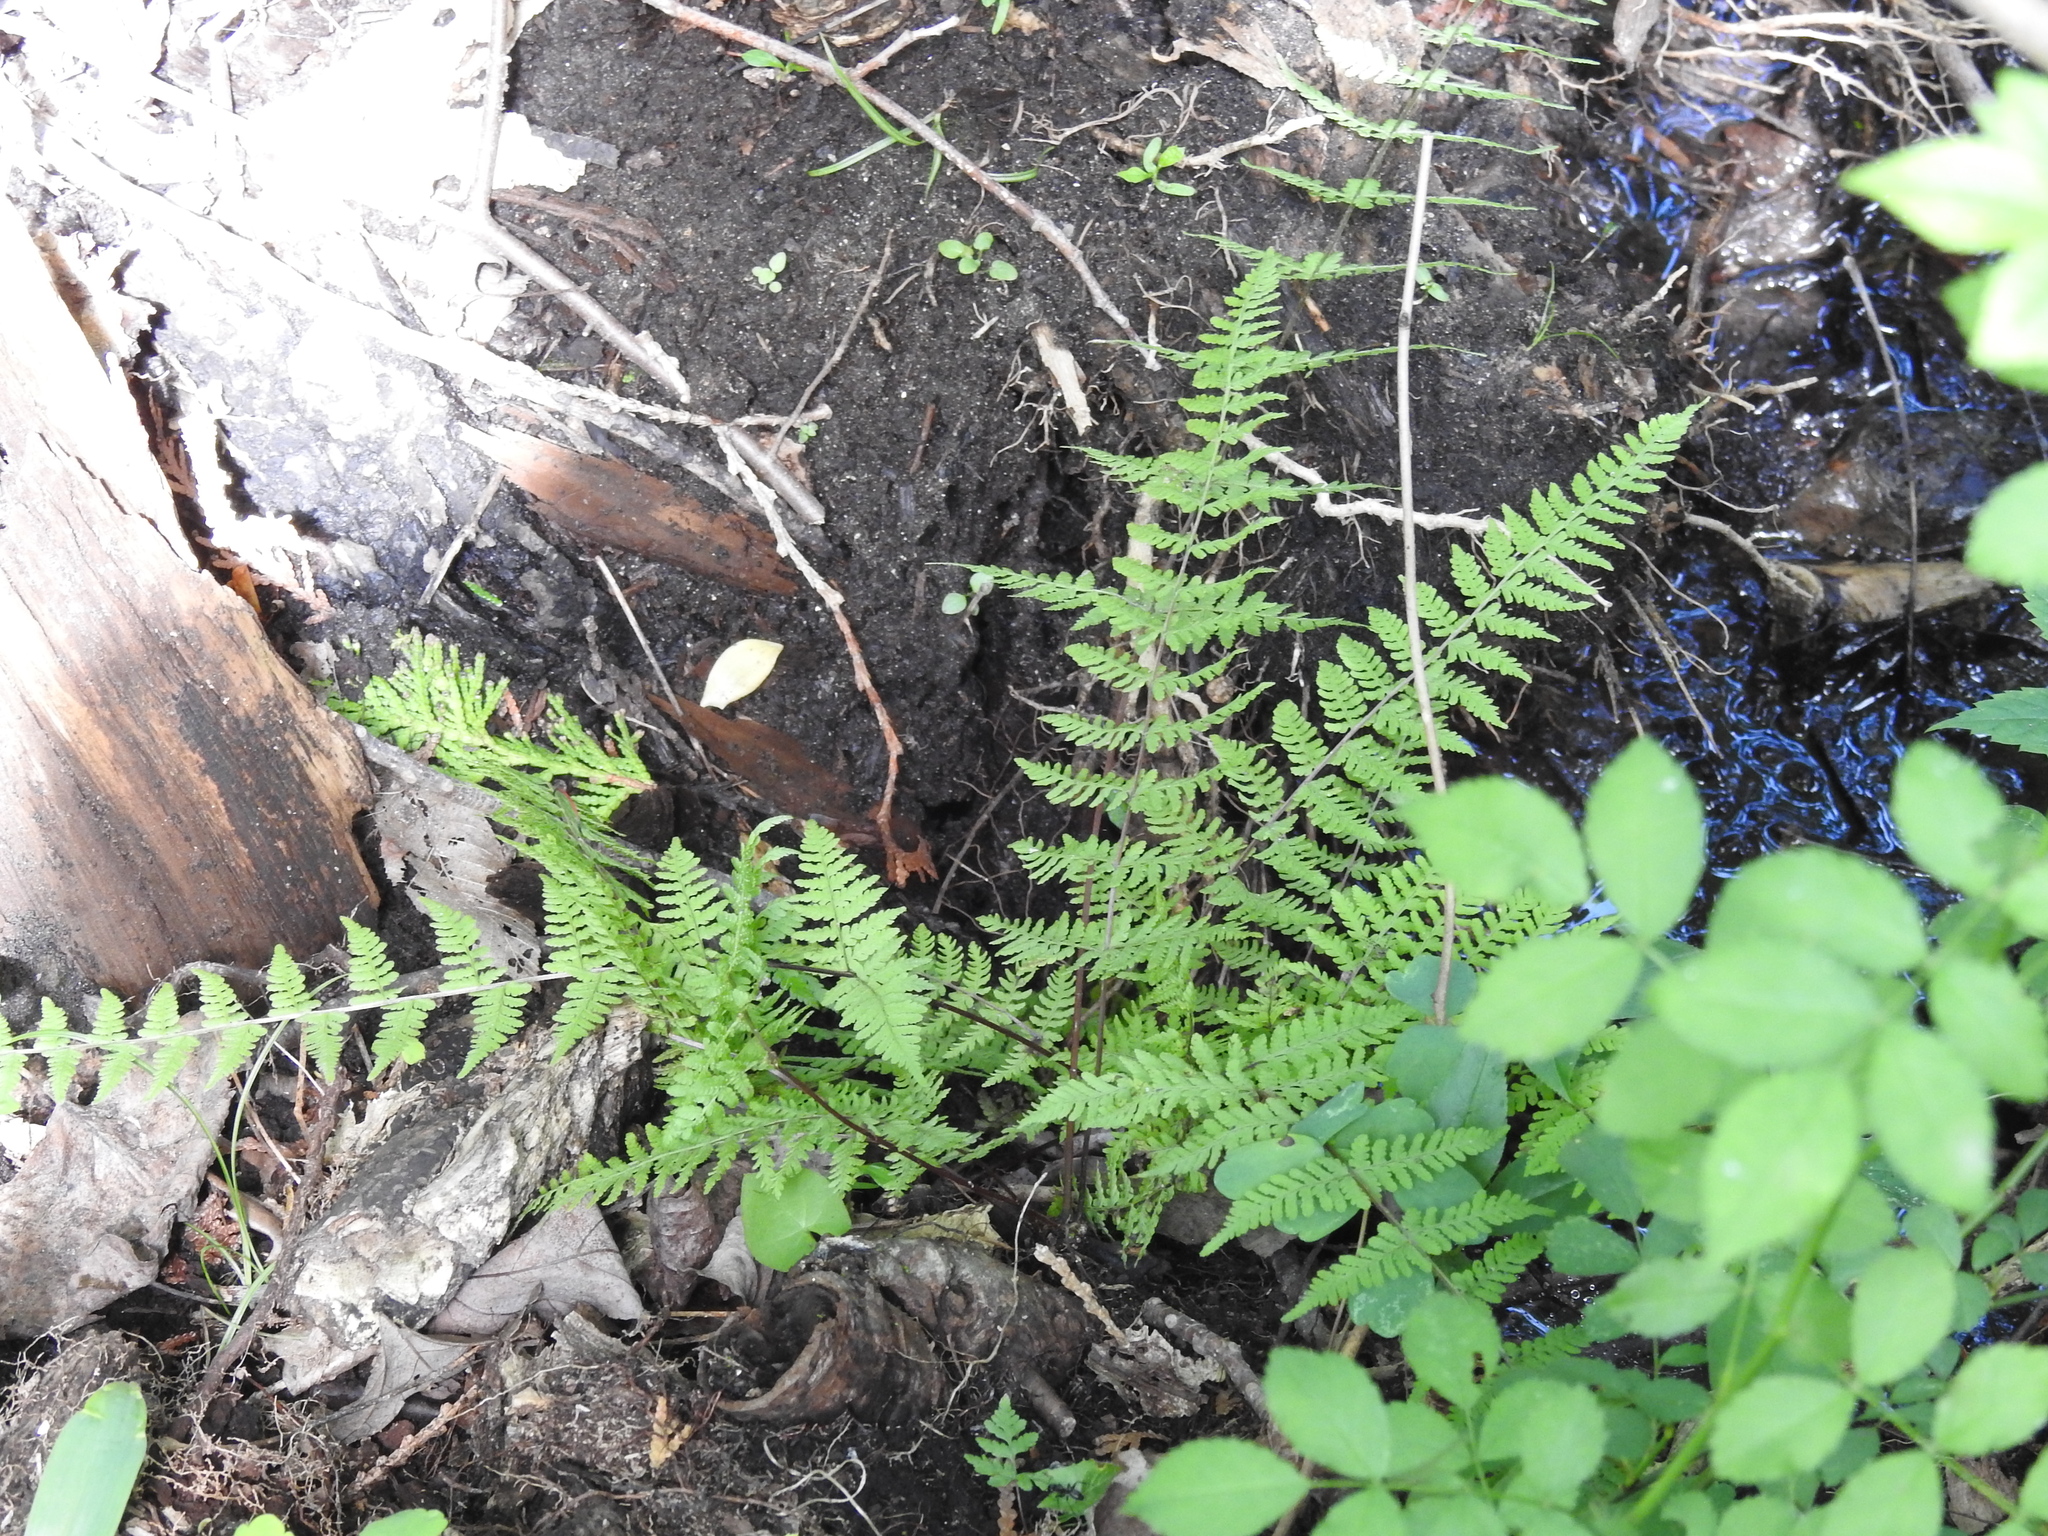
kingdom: Plantae
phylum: Tracheophyta
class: Polypodiopsida
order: Polypodiales
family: Cystopteridaceae
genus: Cystopteris
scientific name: Cystopteris bulbifera
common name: Bulblet bladder fern
